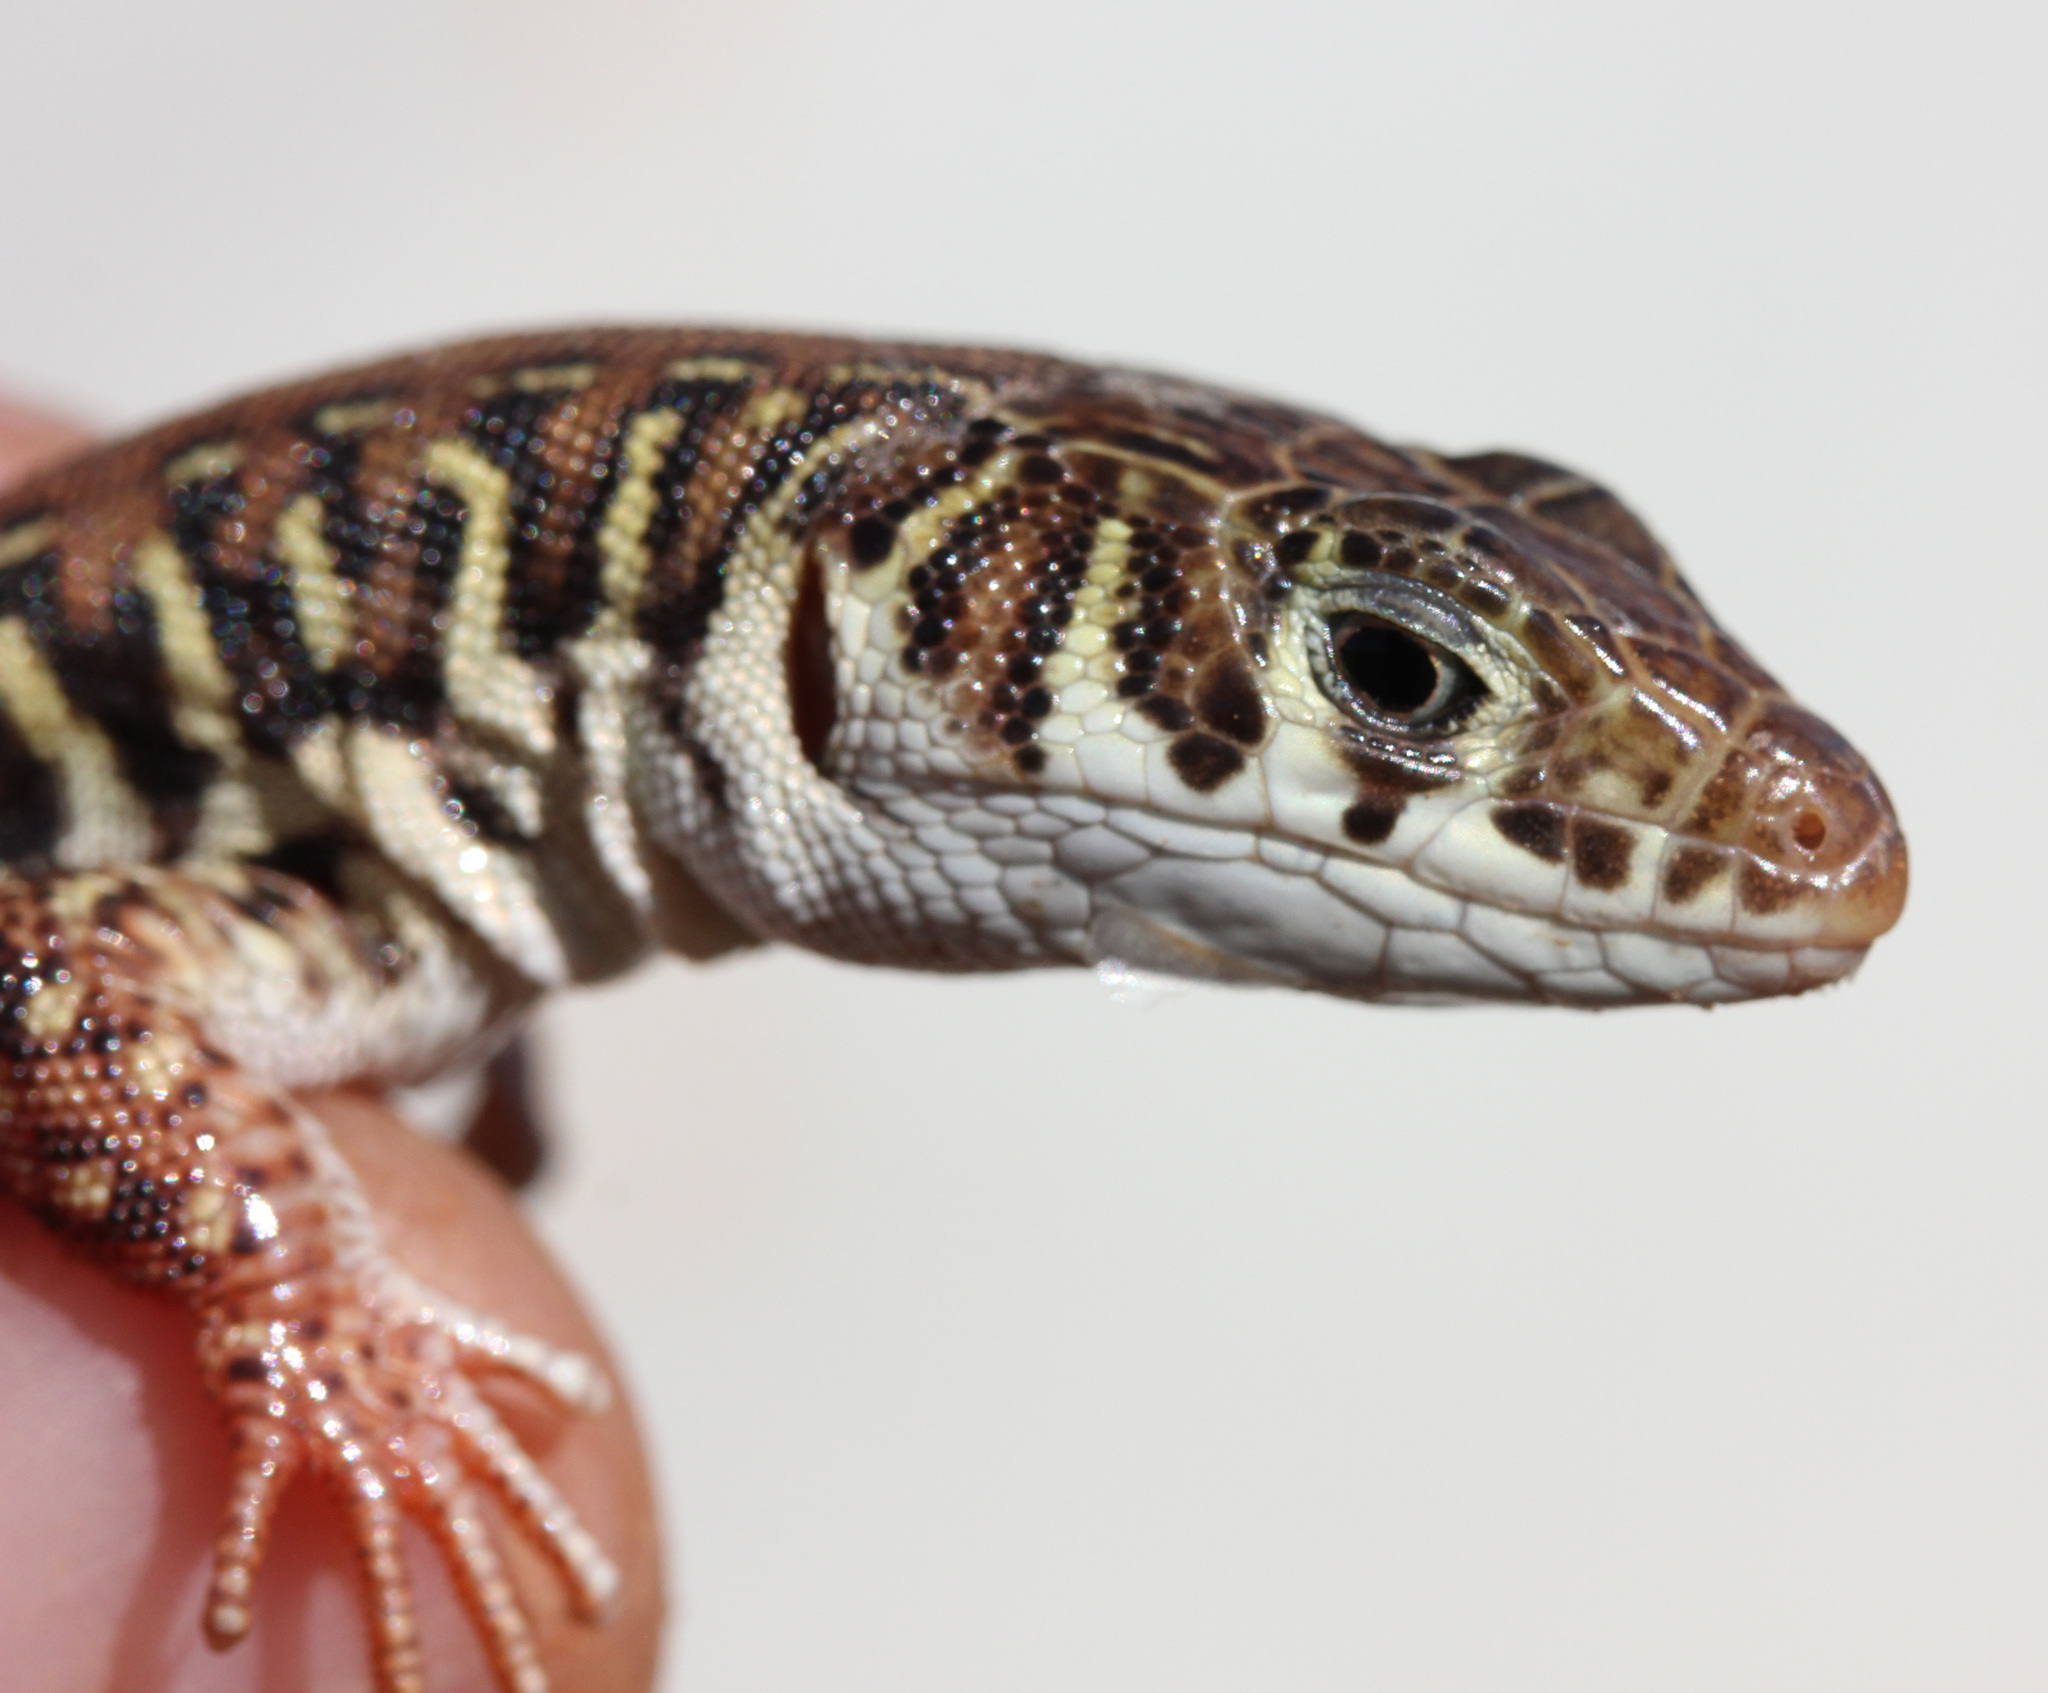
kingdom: Animalia
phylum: Chordata
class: Squamata
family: Lacertidae
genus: Nucras
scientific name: Nucras intertexta
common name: Spotted sandveld lizard
